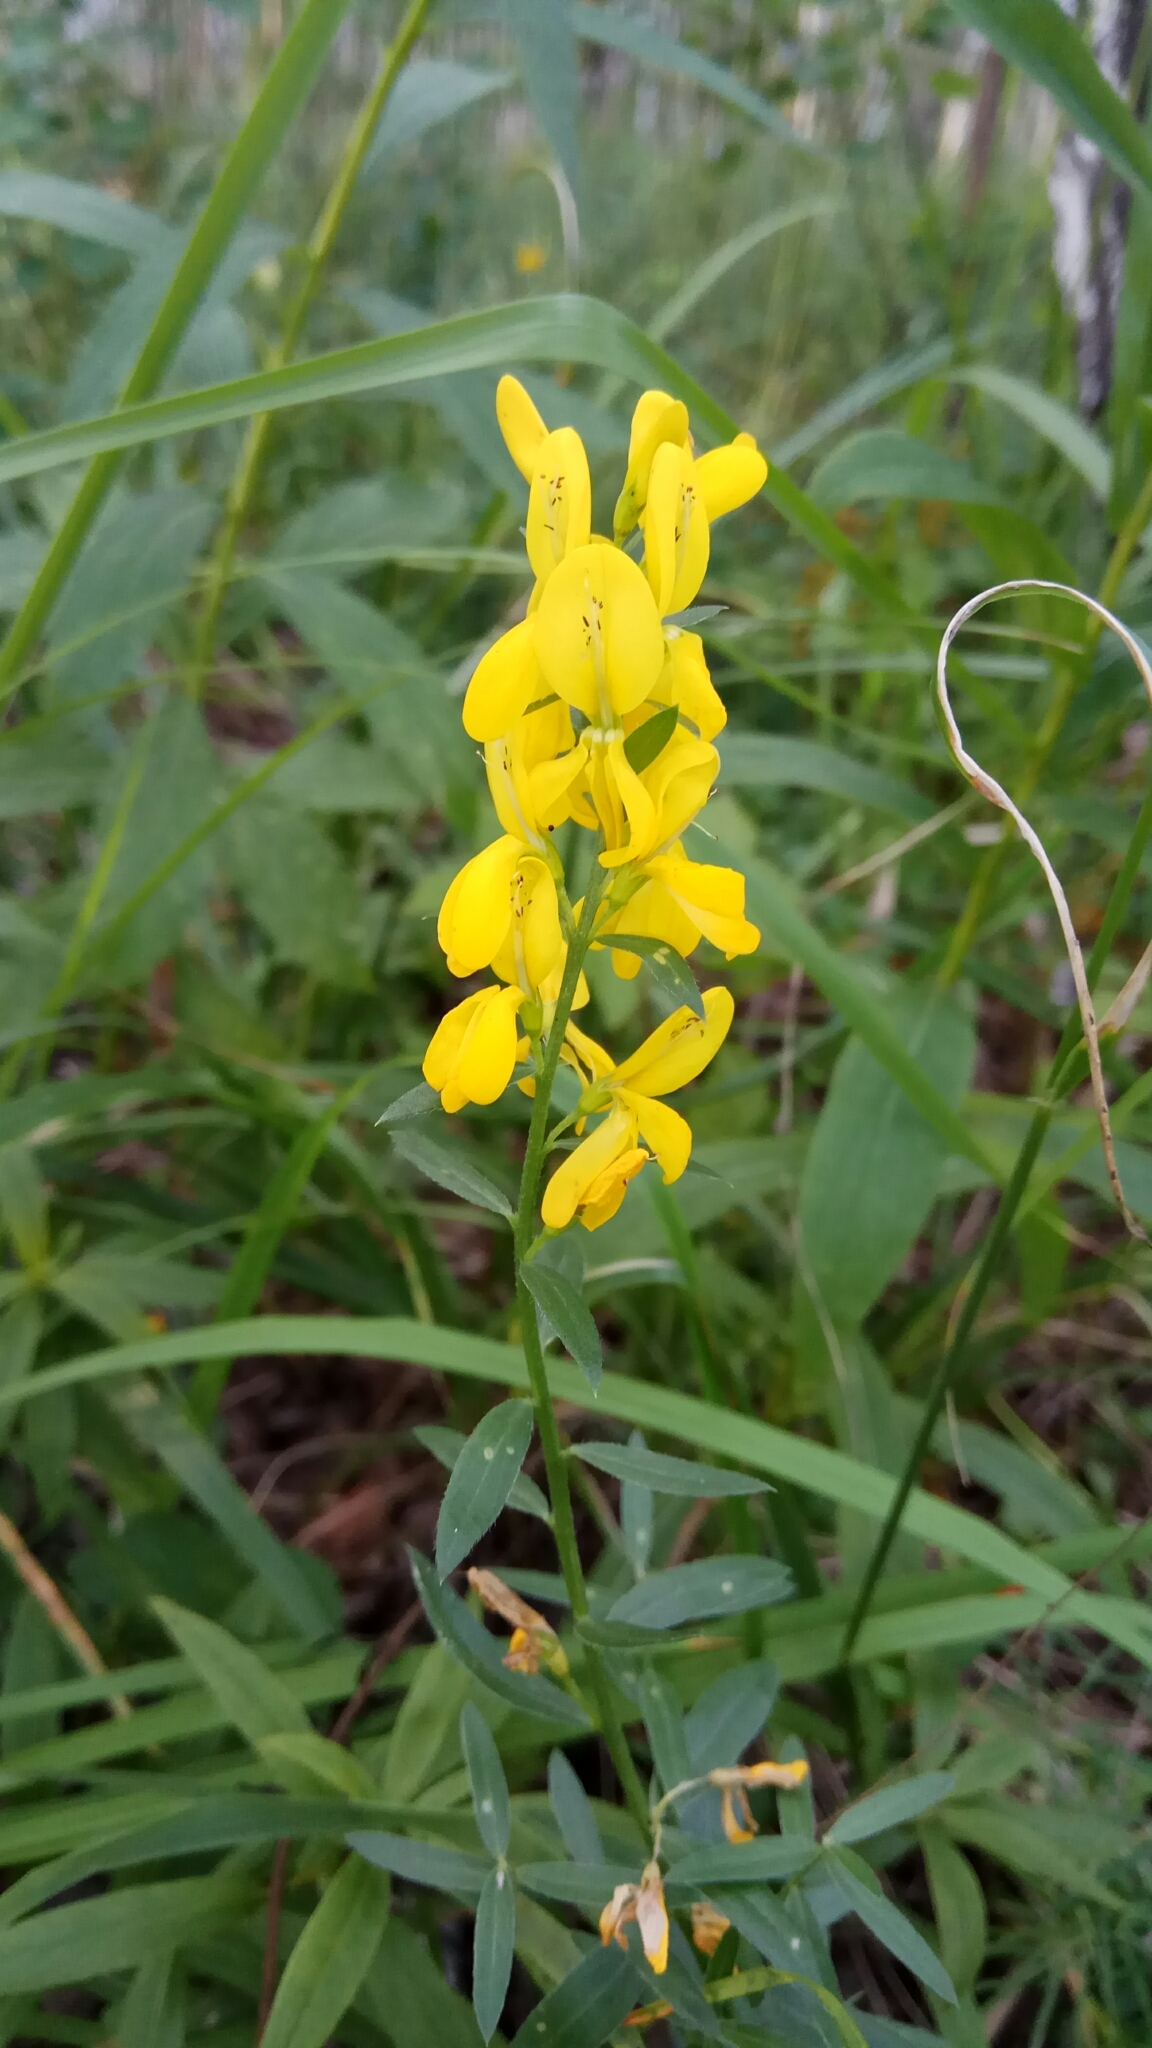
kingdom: Plantae
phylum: Tracheophyta
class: Magnoliopsida
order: Fabales
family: Fabaceae
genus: Genista
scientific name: Genista tinctoria
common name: Dyer's greenweed
